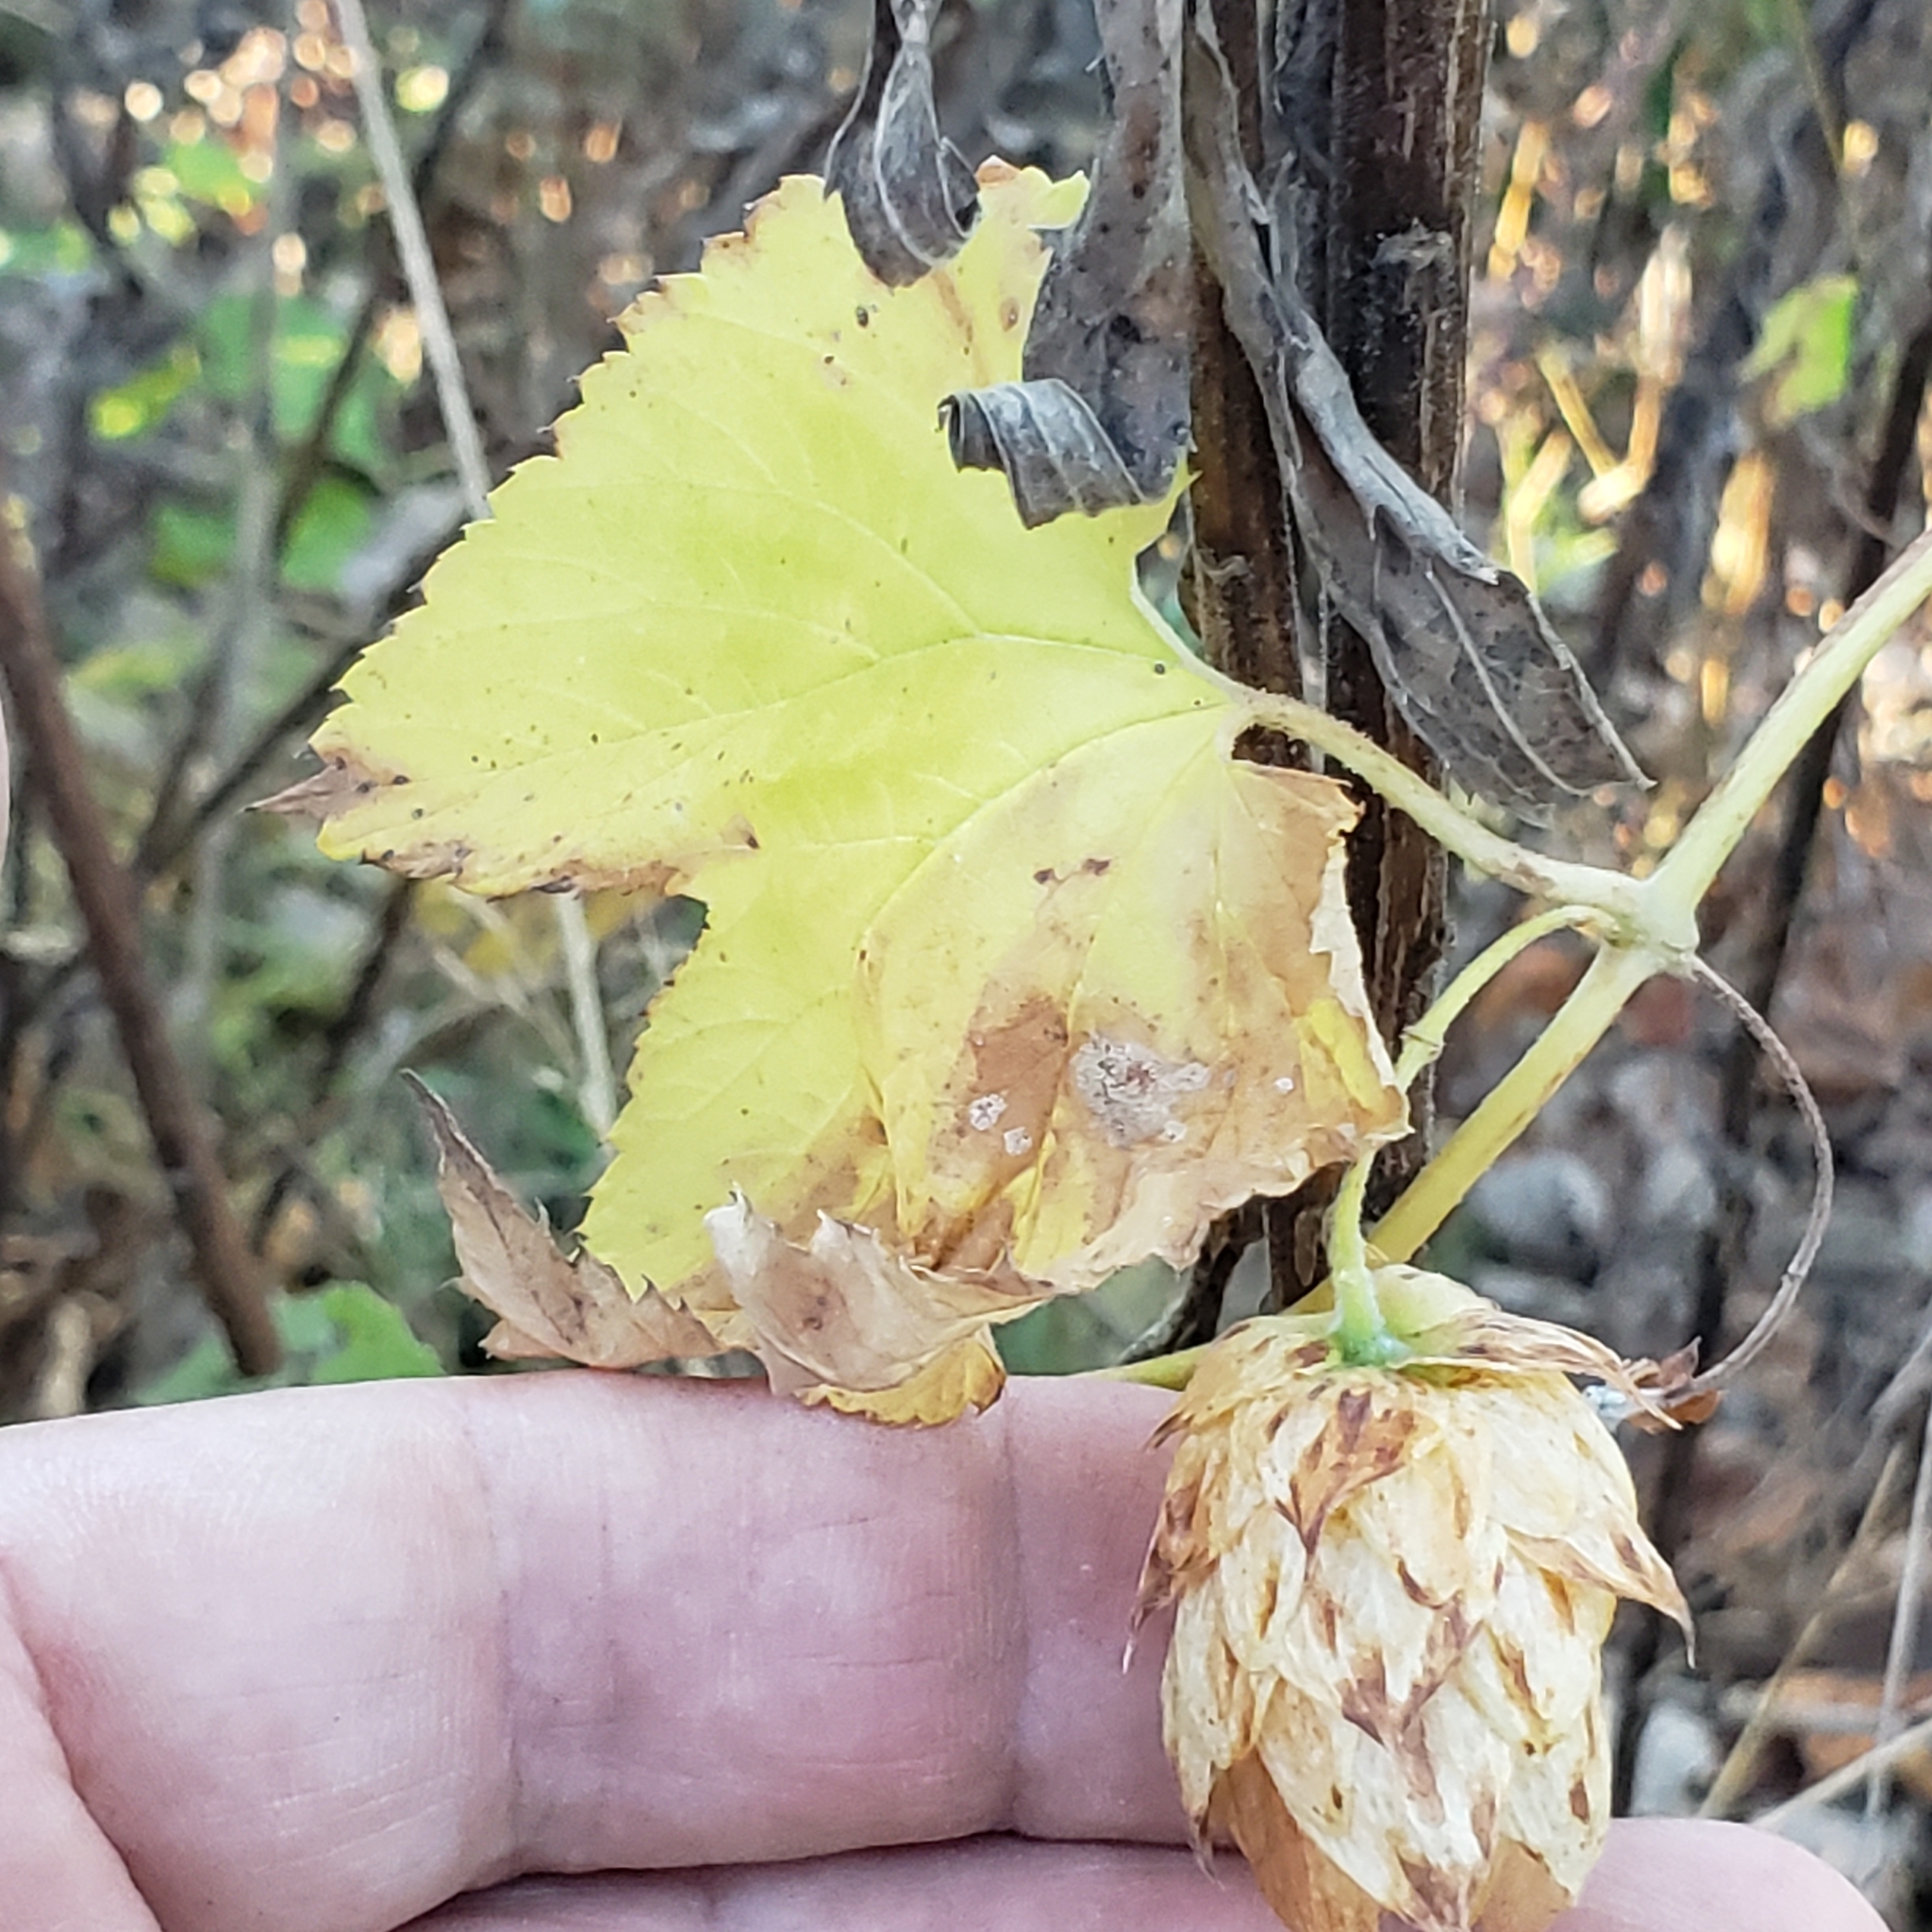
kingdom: Plantae
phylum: Tracheophyta
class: Magnoliopsida
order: Rosales
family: Cannabaceae
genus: Humulus
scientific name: Humulus lupulus
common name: Hop
